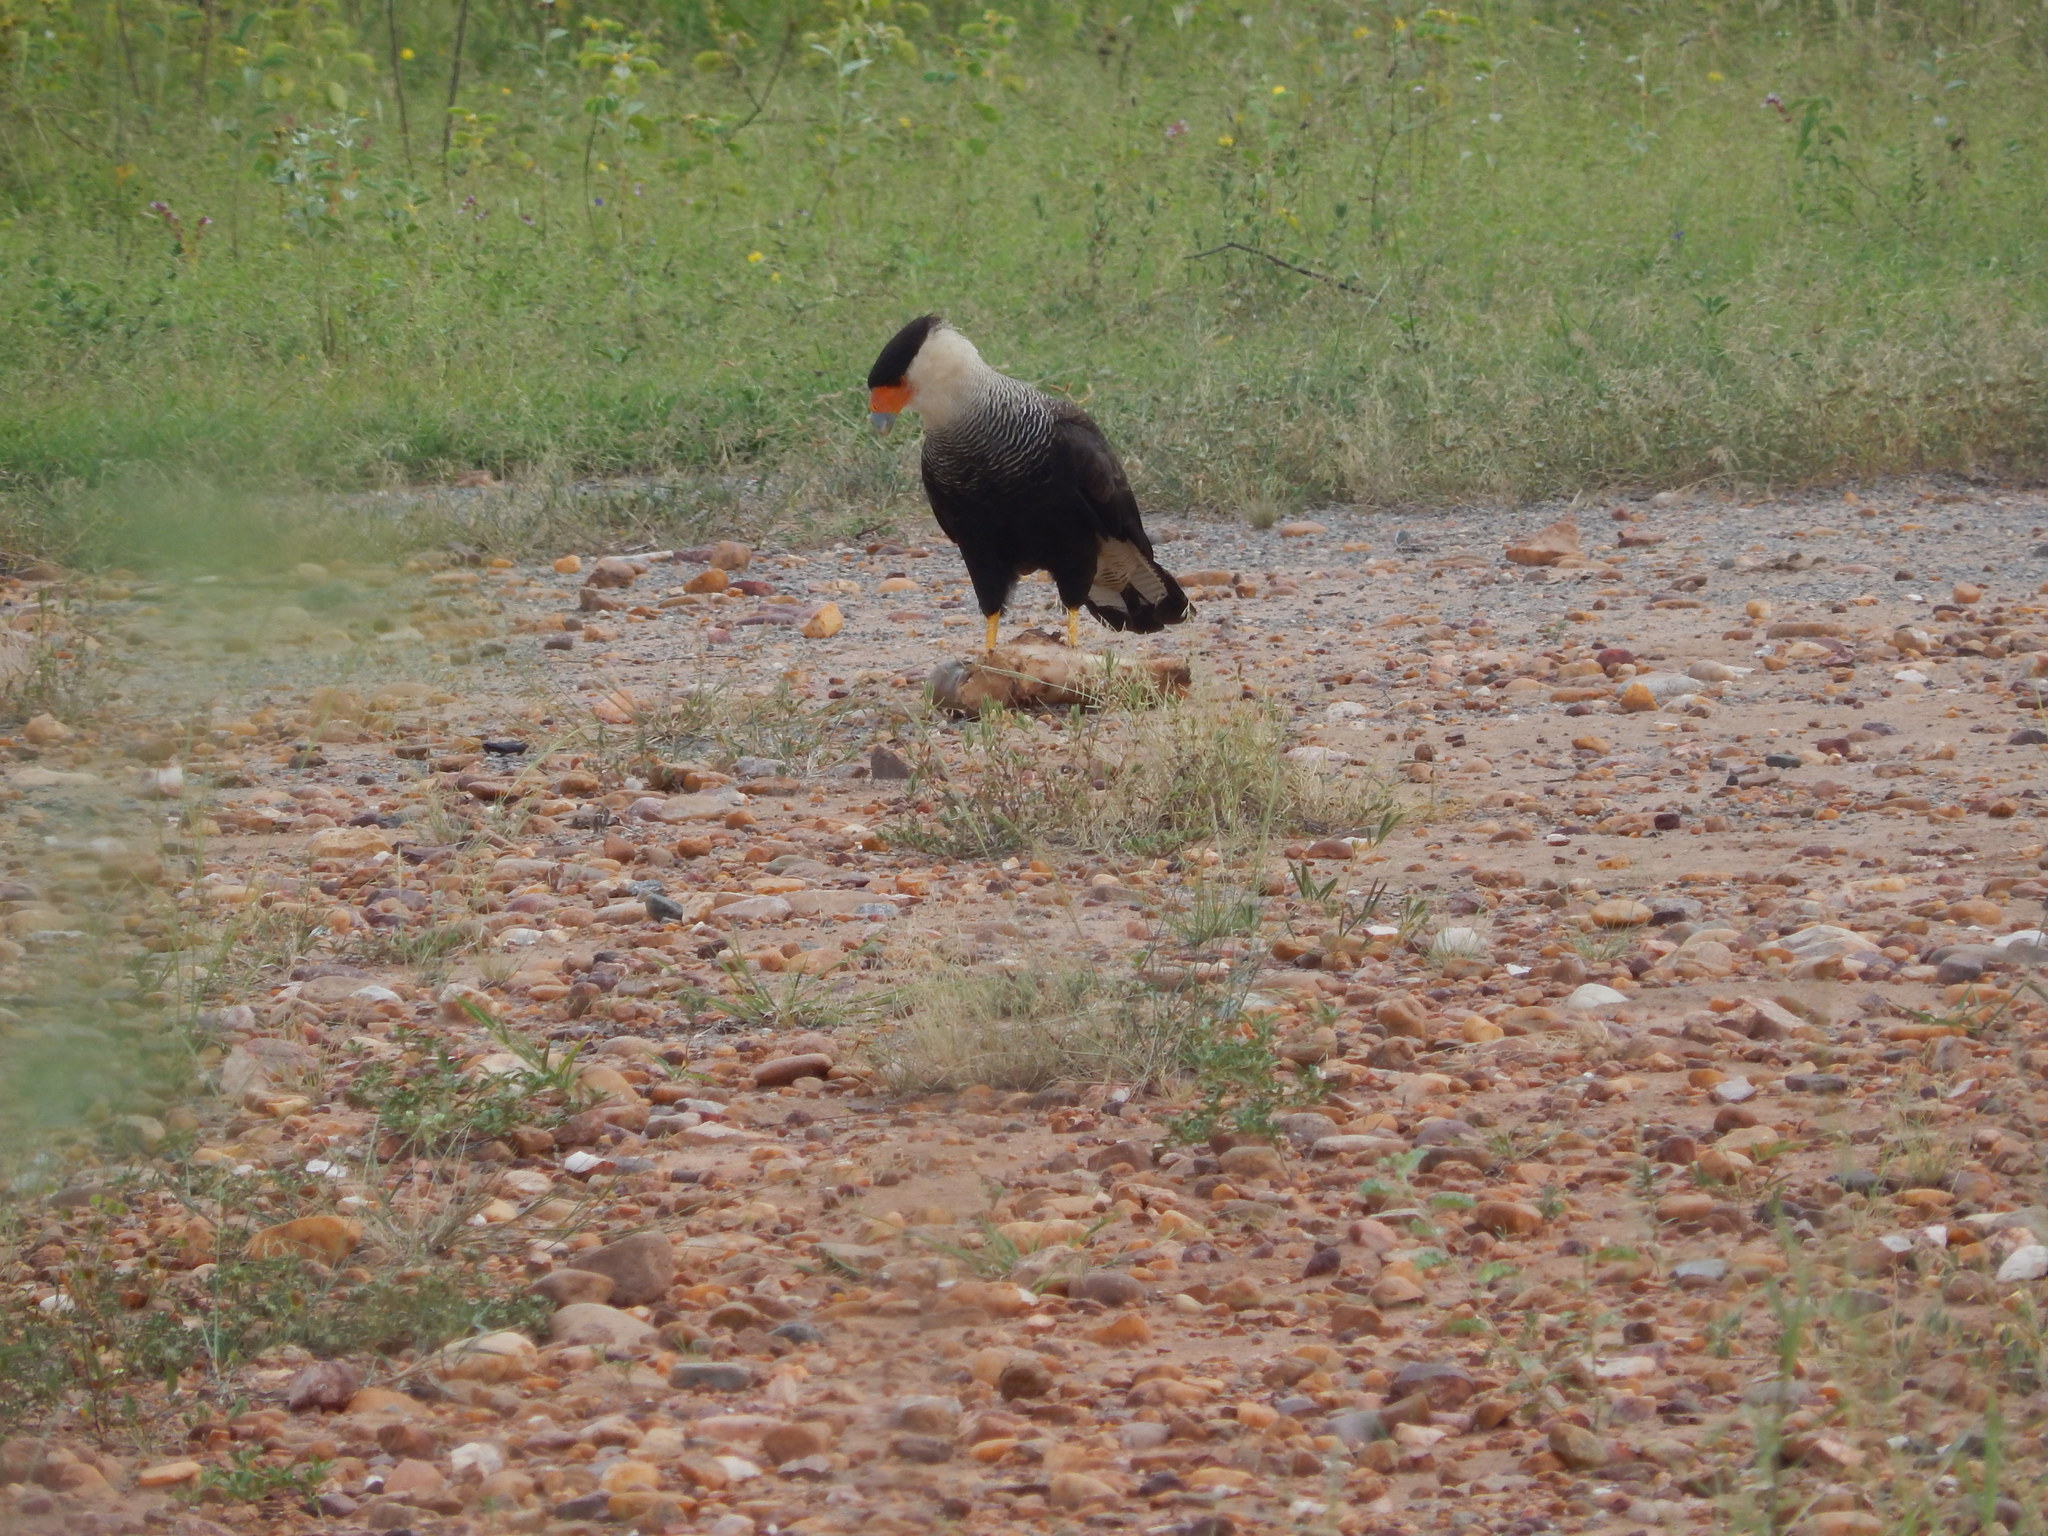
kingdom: Animalia
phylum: Chordata
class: Aves
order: Falconiformes
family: Falconidae
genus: Caracara
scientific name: Caracara plancus
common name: Southern caracara
